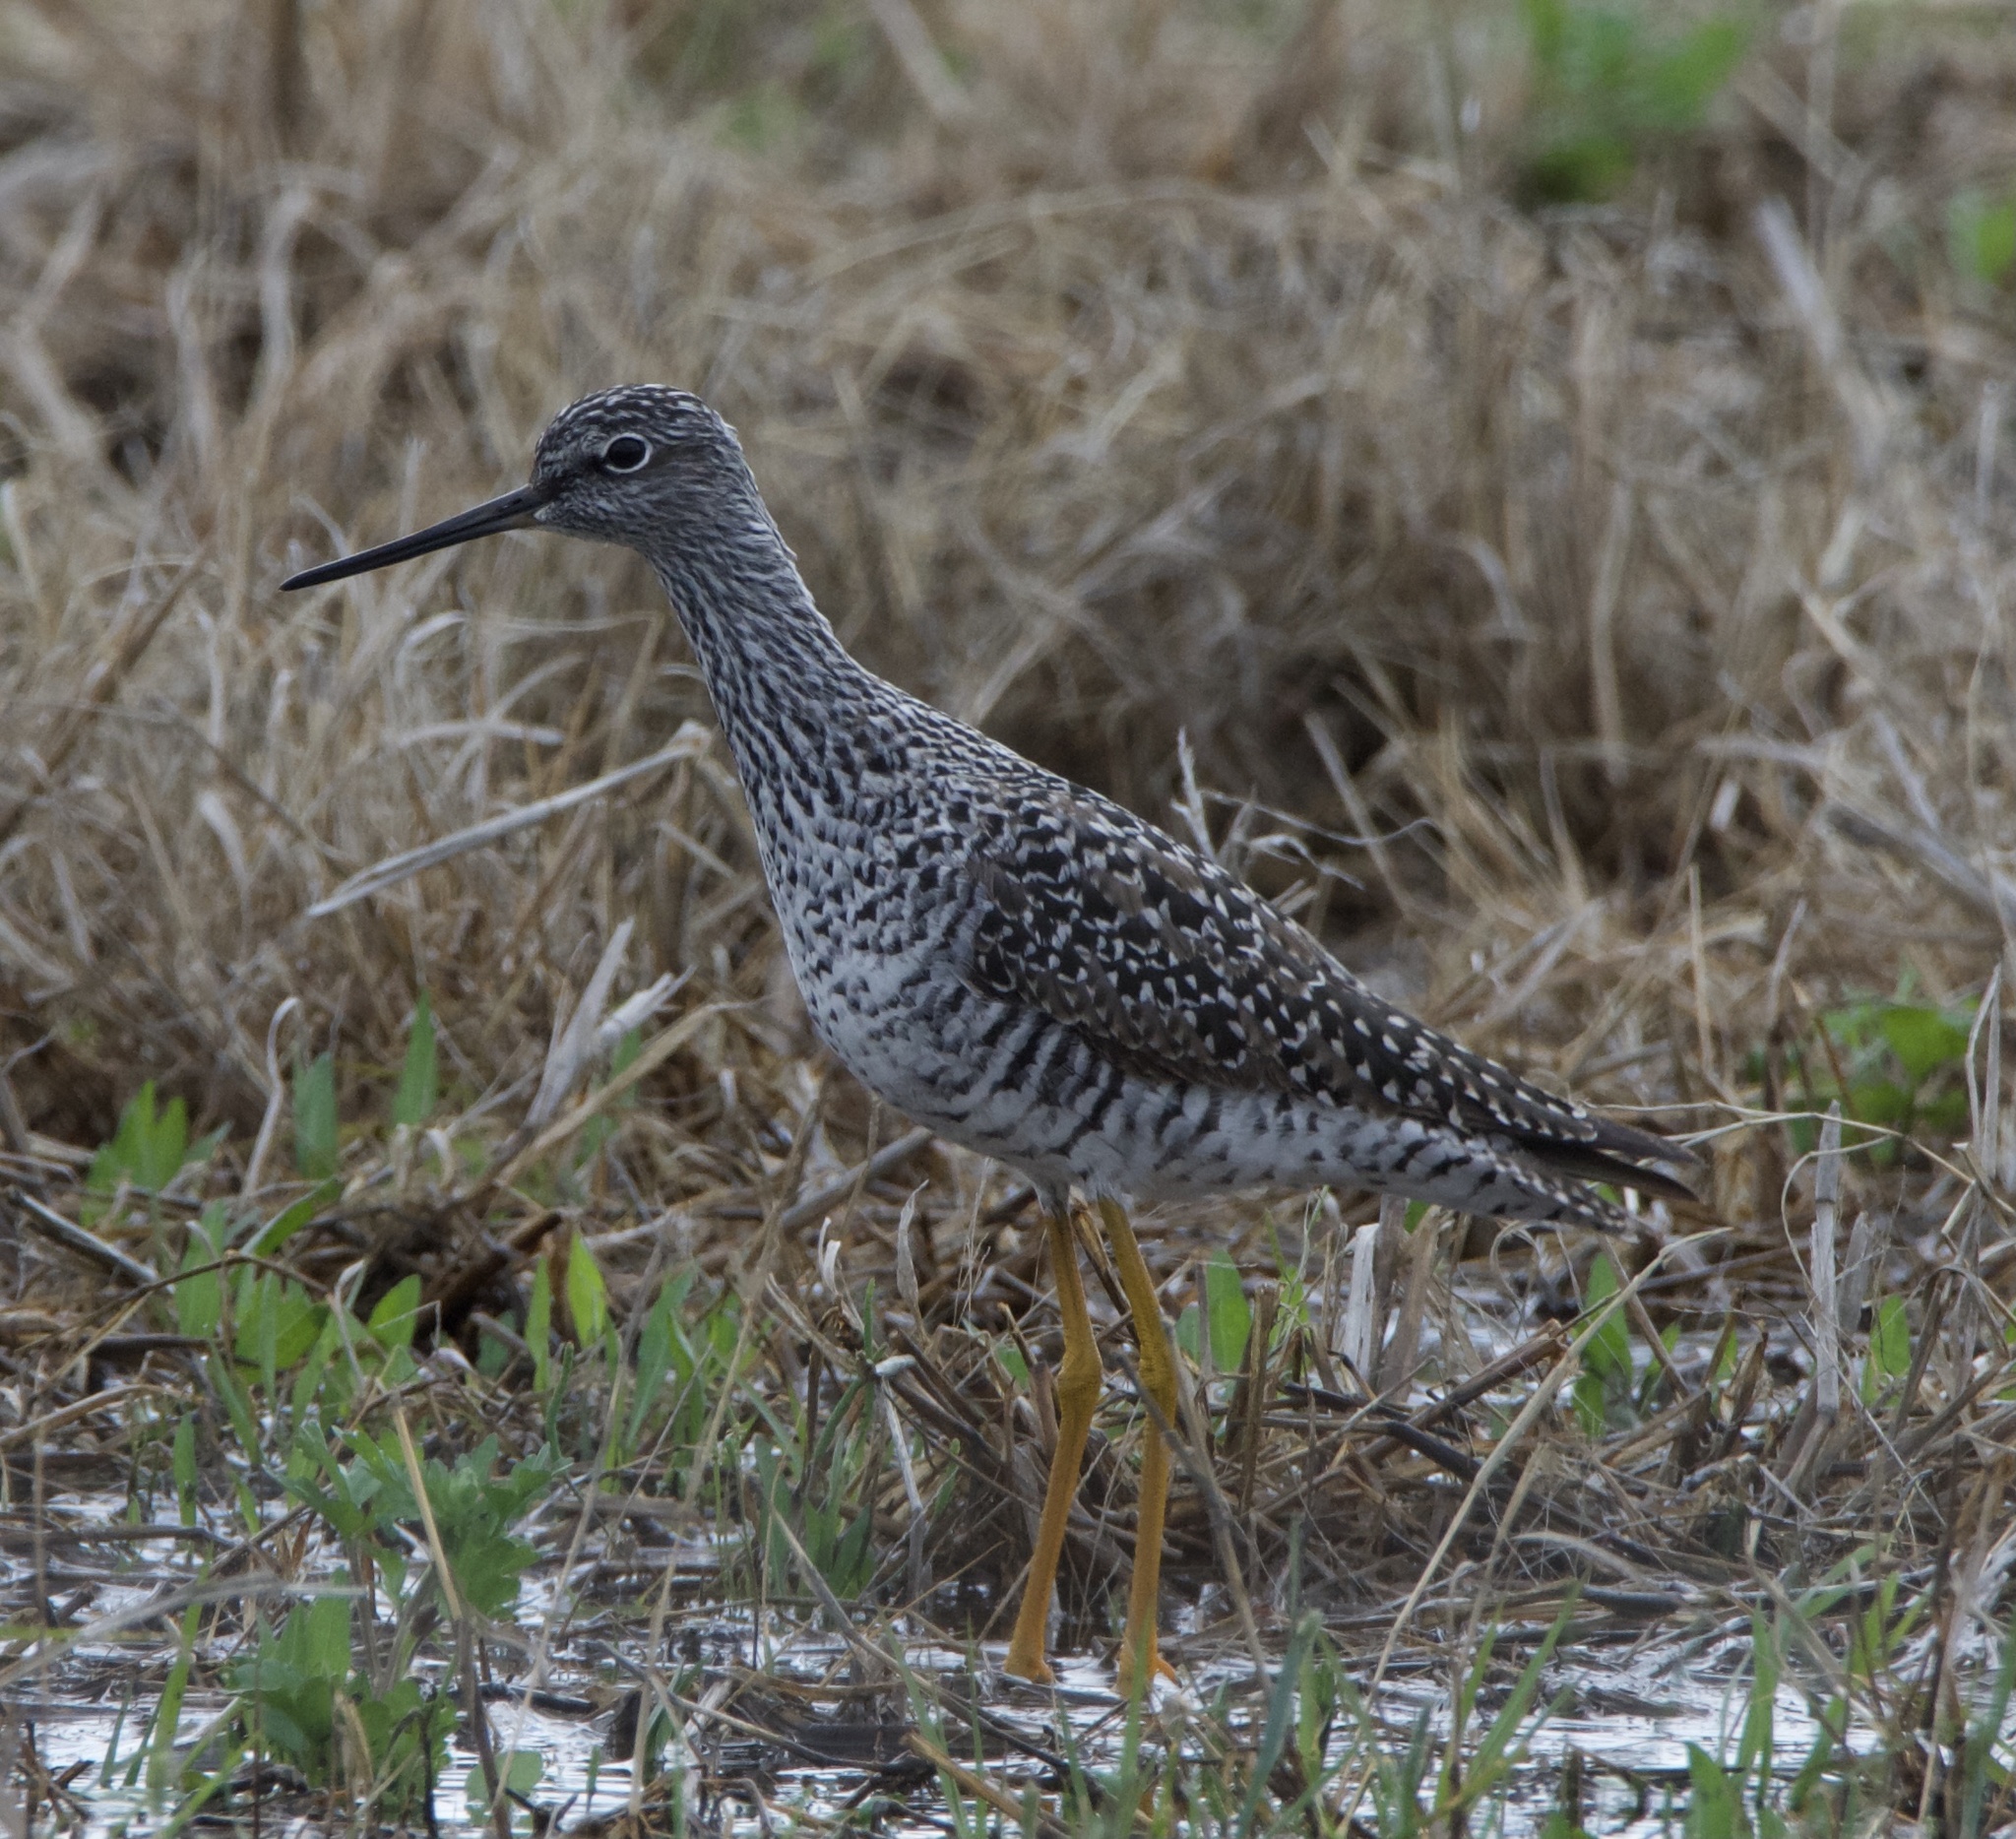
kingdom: Animalia
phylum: Chordata
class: Aves
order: Charadriiformes
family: Scolopacidae
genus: Tringa
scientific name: Tringa melanoleuca
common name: Greater yellowlegs
